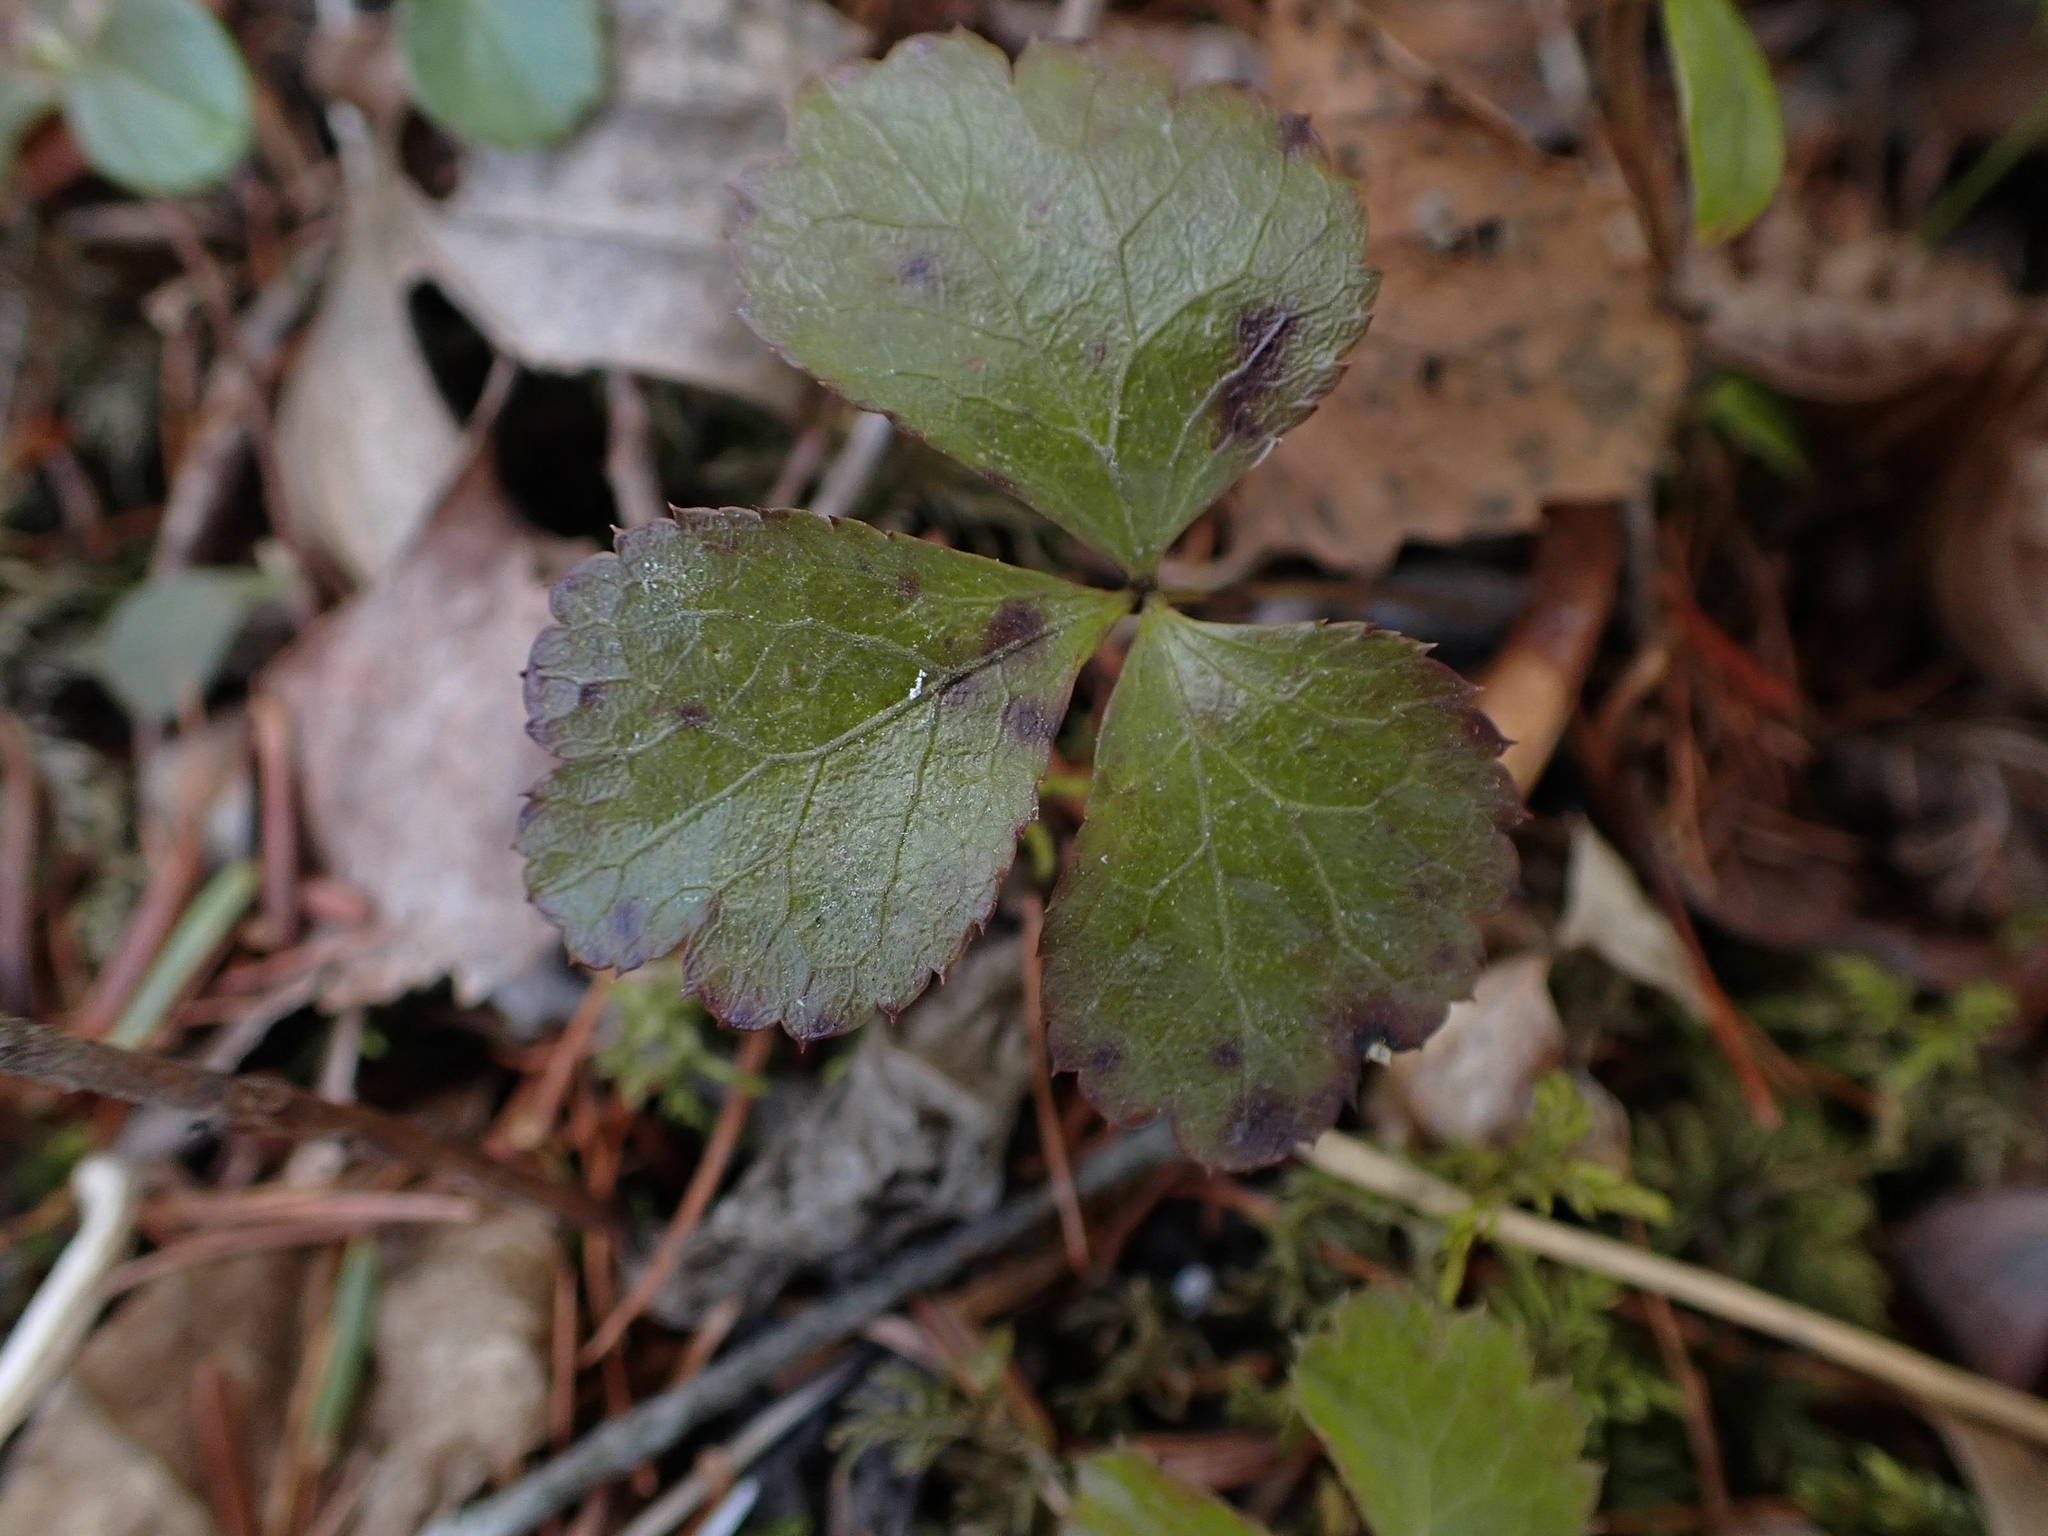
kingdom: Plantae
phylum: Tracheophyta
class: Magnoliopsida
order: Ranunculales
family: Ranunculaceae
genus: Coptis
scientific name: Coptis trifolia
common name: Canker-root
